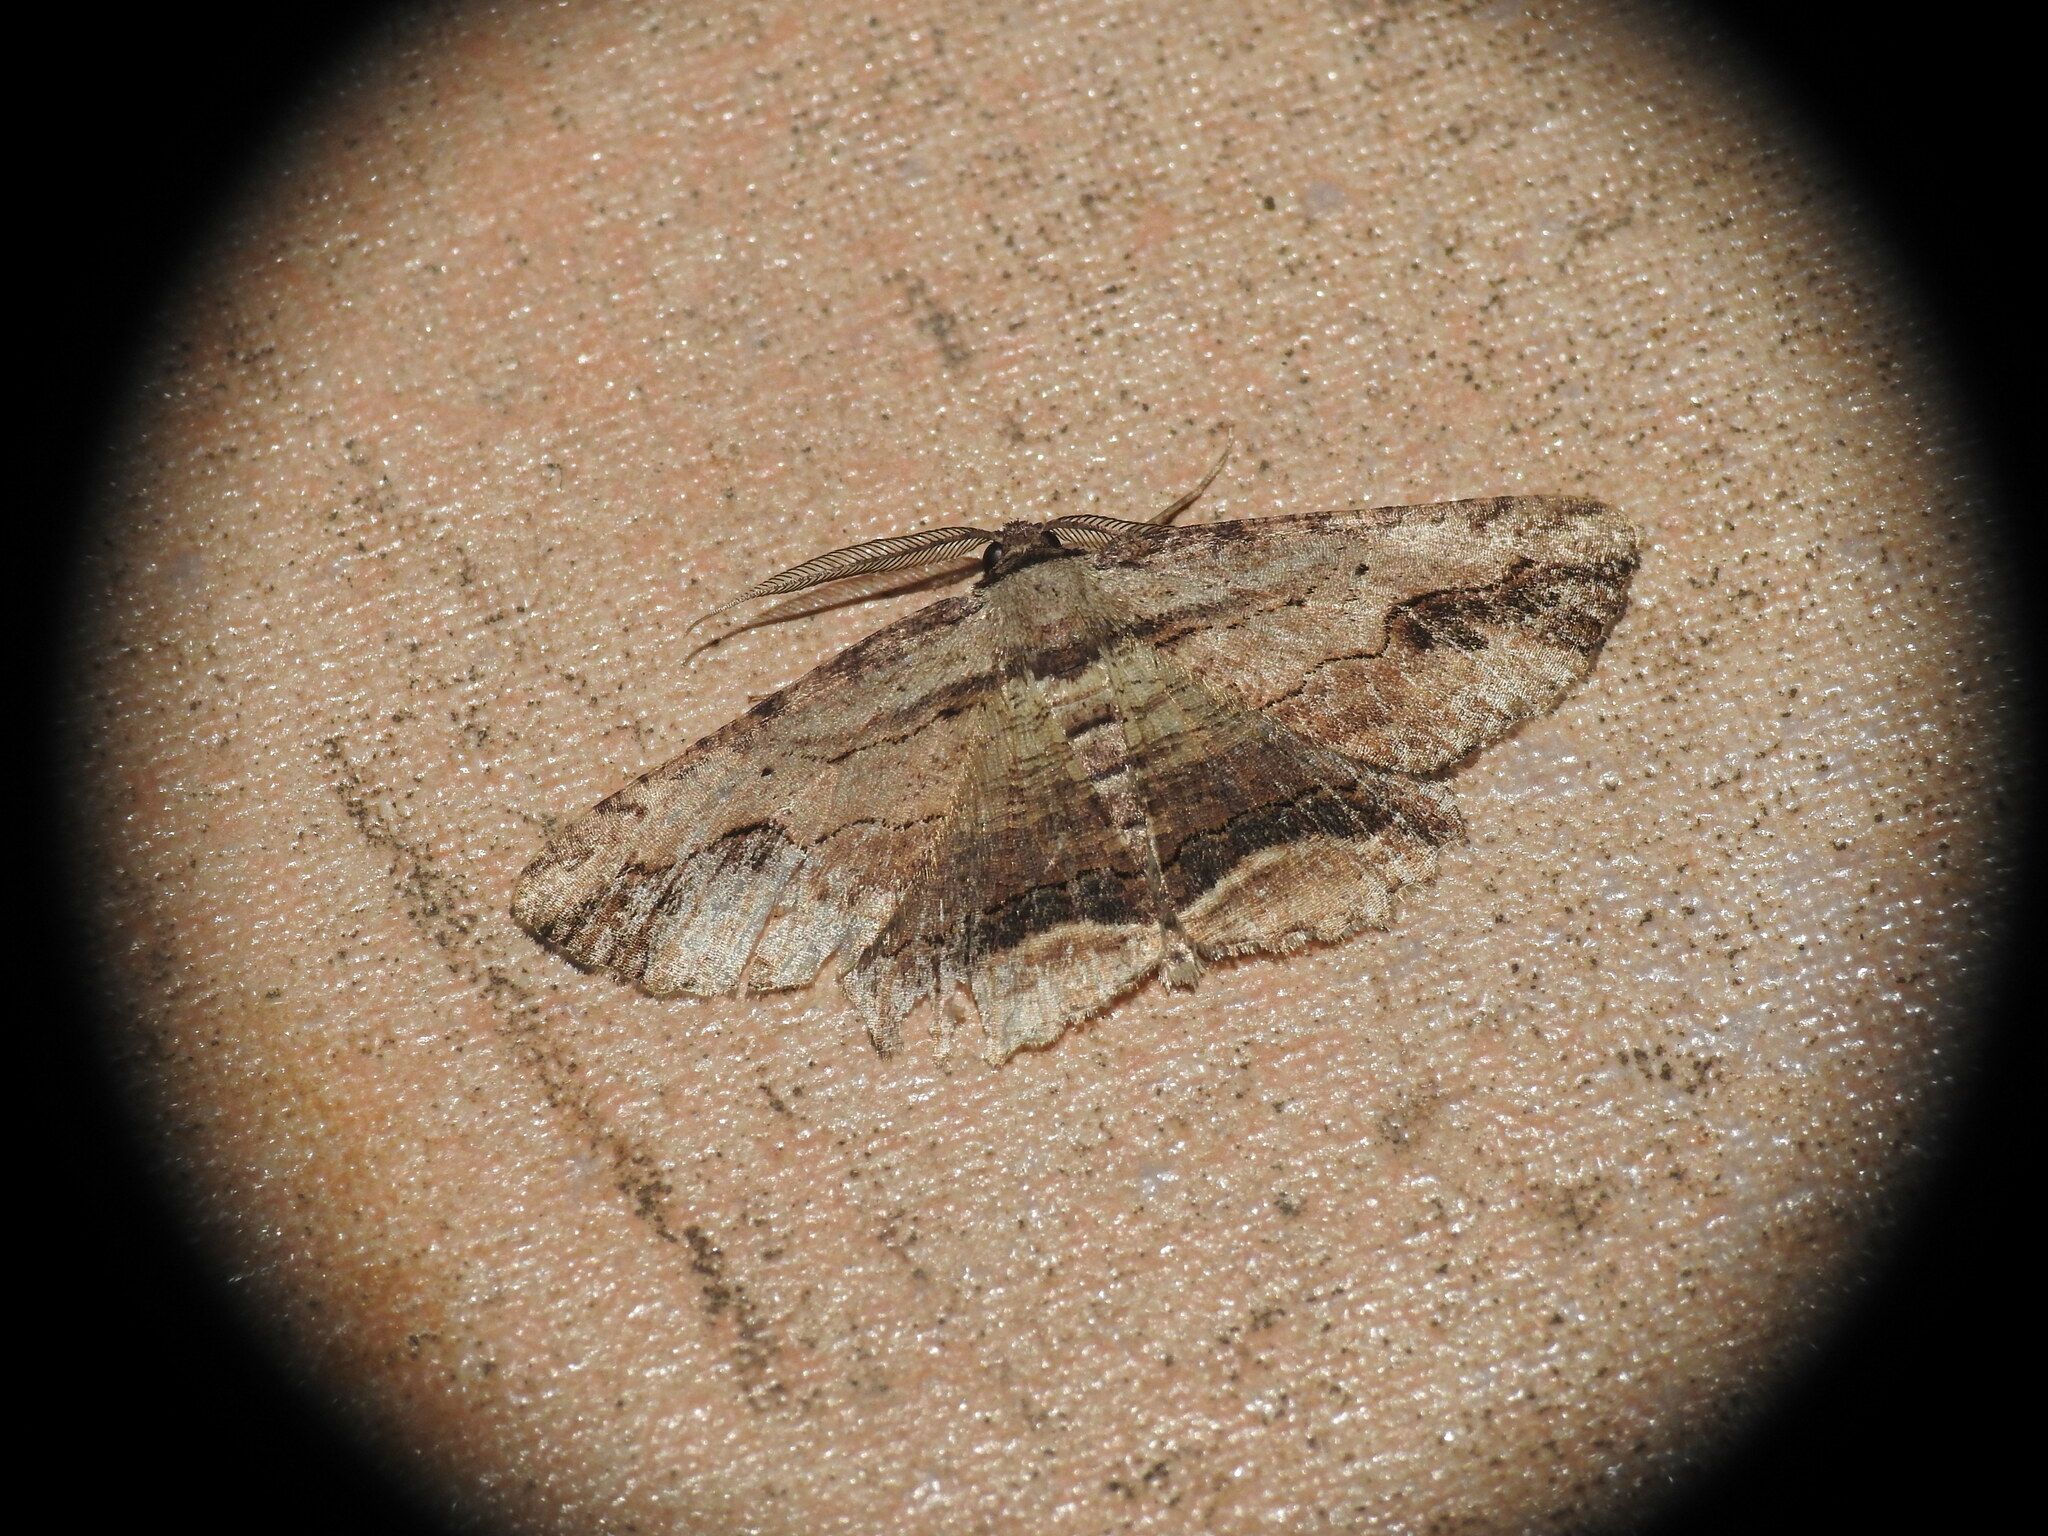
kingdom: Animalia
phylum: Arthropoda
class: Insecta
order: Lepidoptera
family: Geometridae
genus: Menophra
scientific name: Menophra abruptaria
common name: Waved umber
